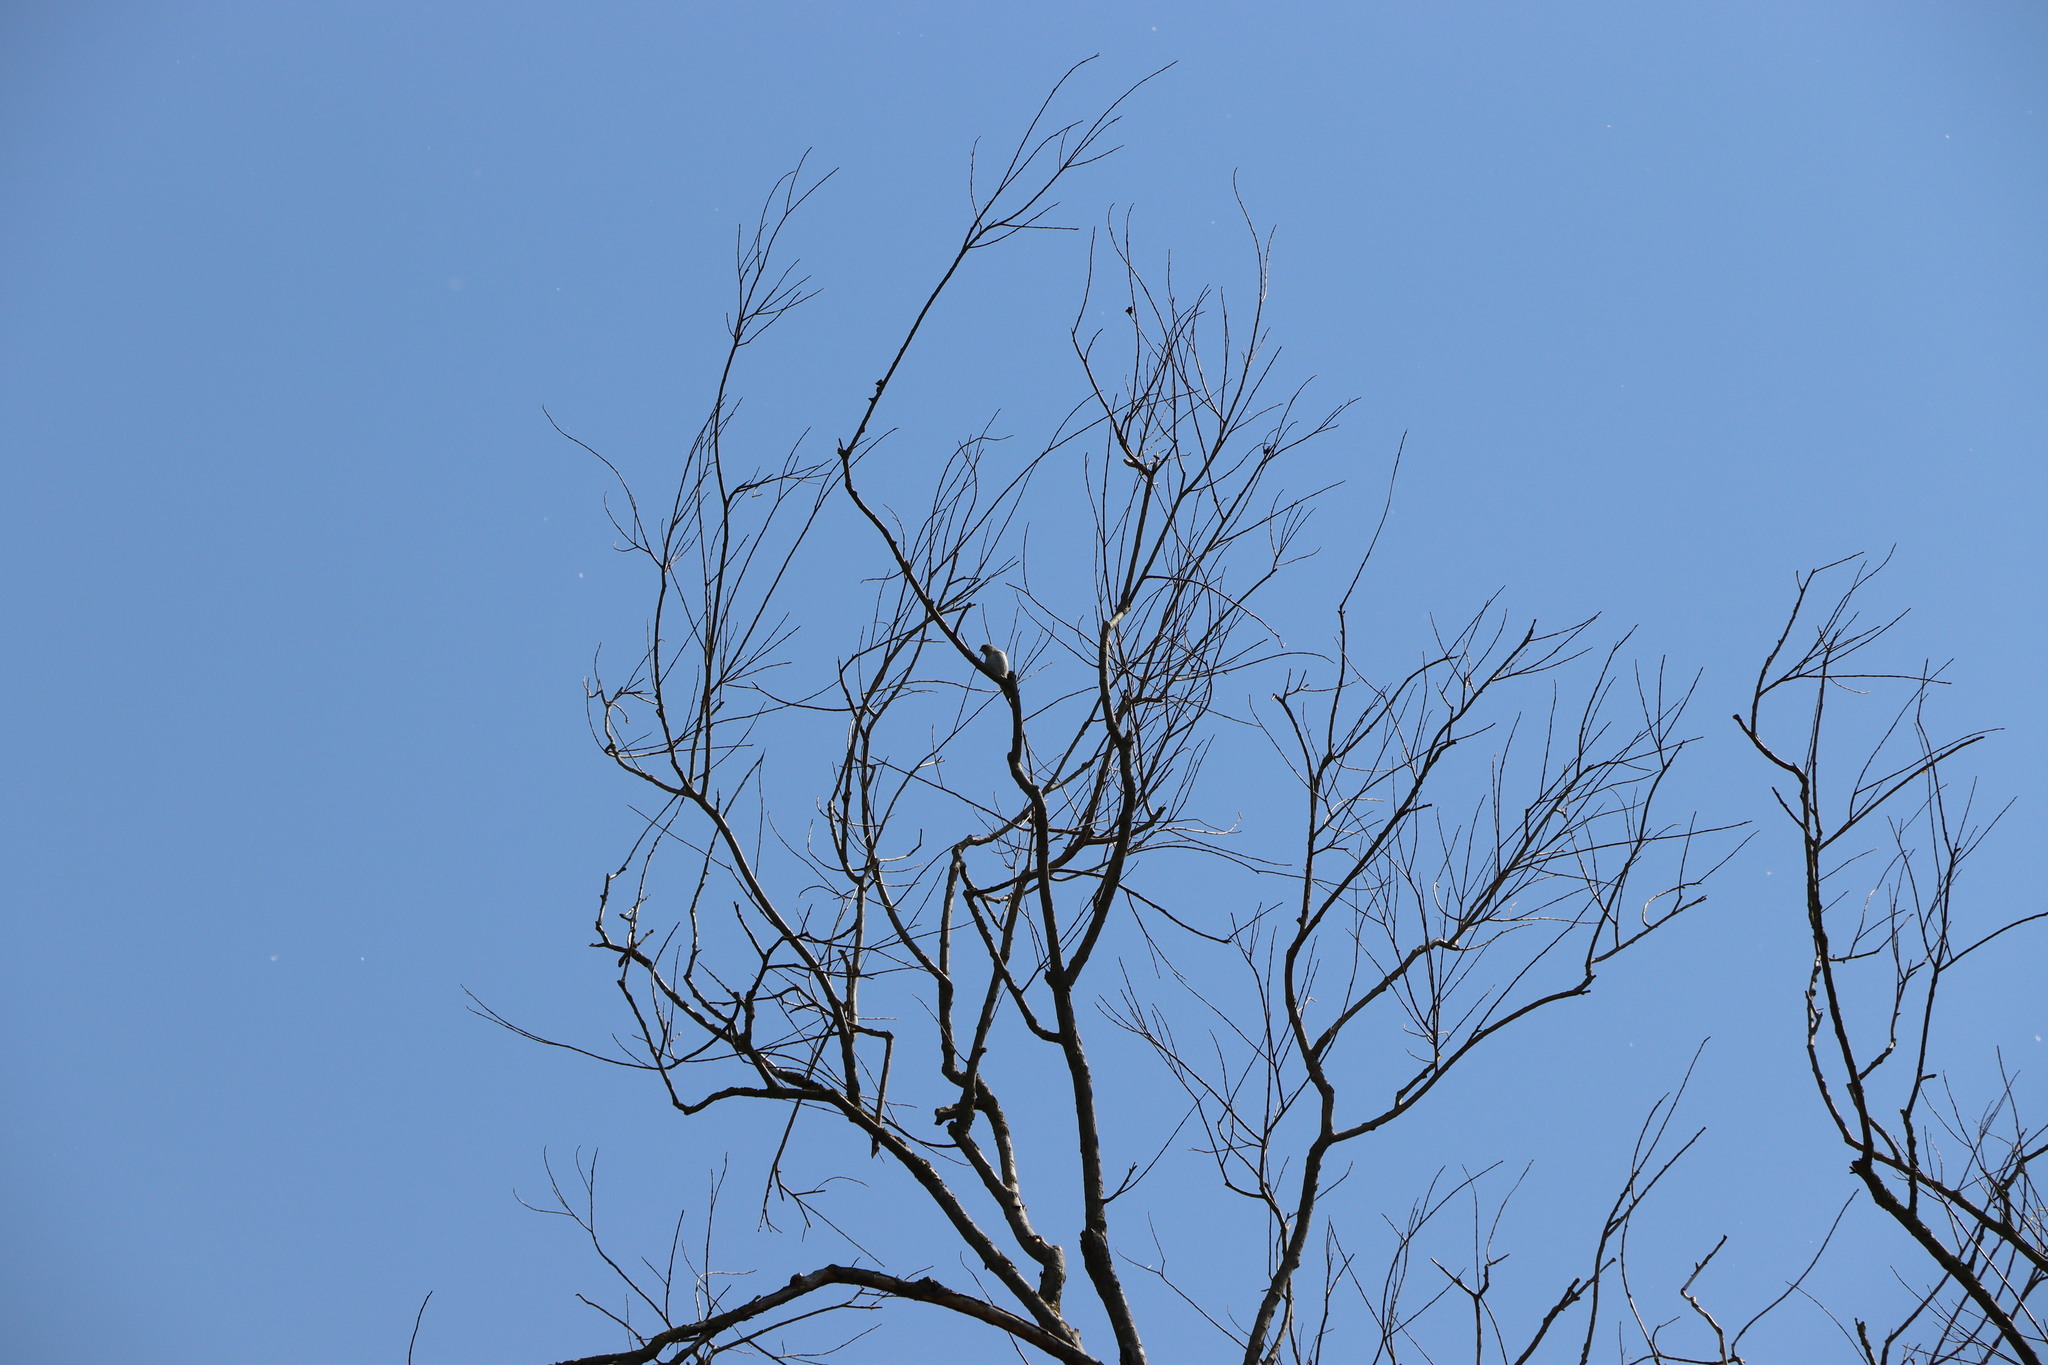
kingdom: Animalia
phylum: Chordata
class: Aves
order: Passeriformes
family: Fringillidae
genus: Carduelis
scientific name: Carduelis carduelis
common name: European goldfinch
